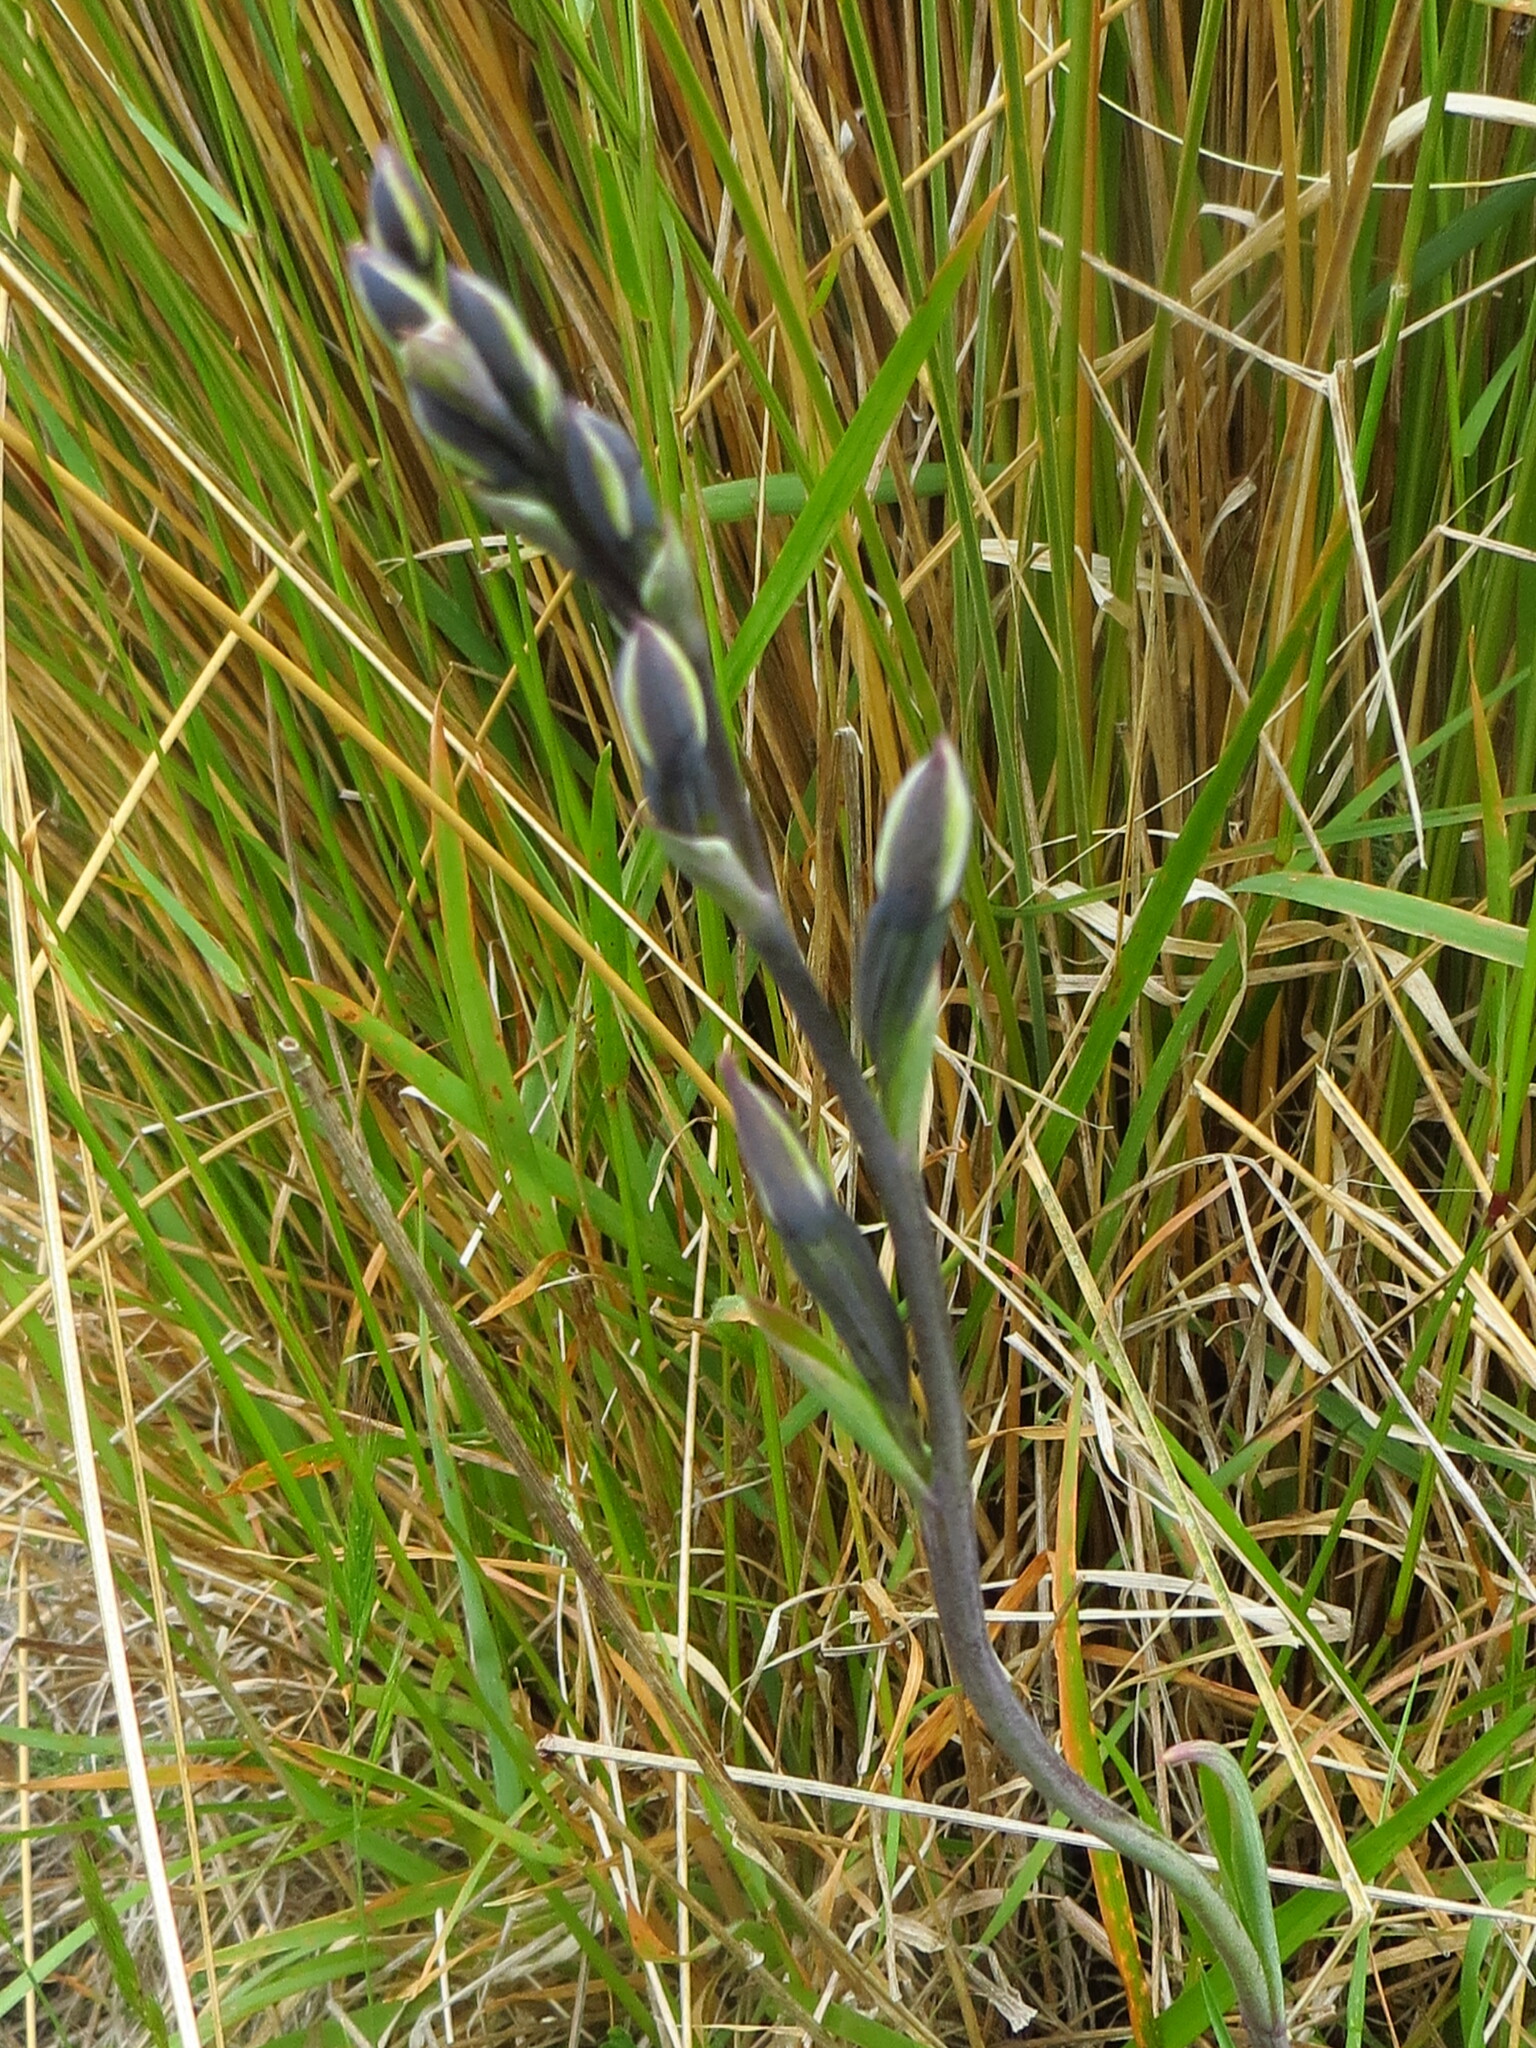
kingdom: Plantae
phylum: Tracheophyta
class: Liliopsida
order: Asparagales
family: Orchidaceae
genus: Thelymitra
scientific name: Thelymitra longifolia
